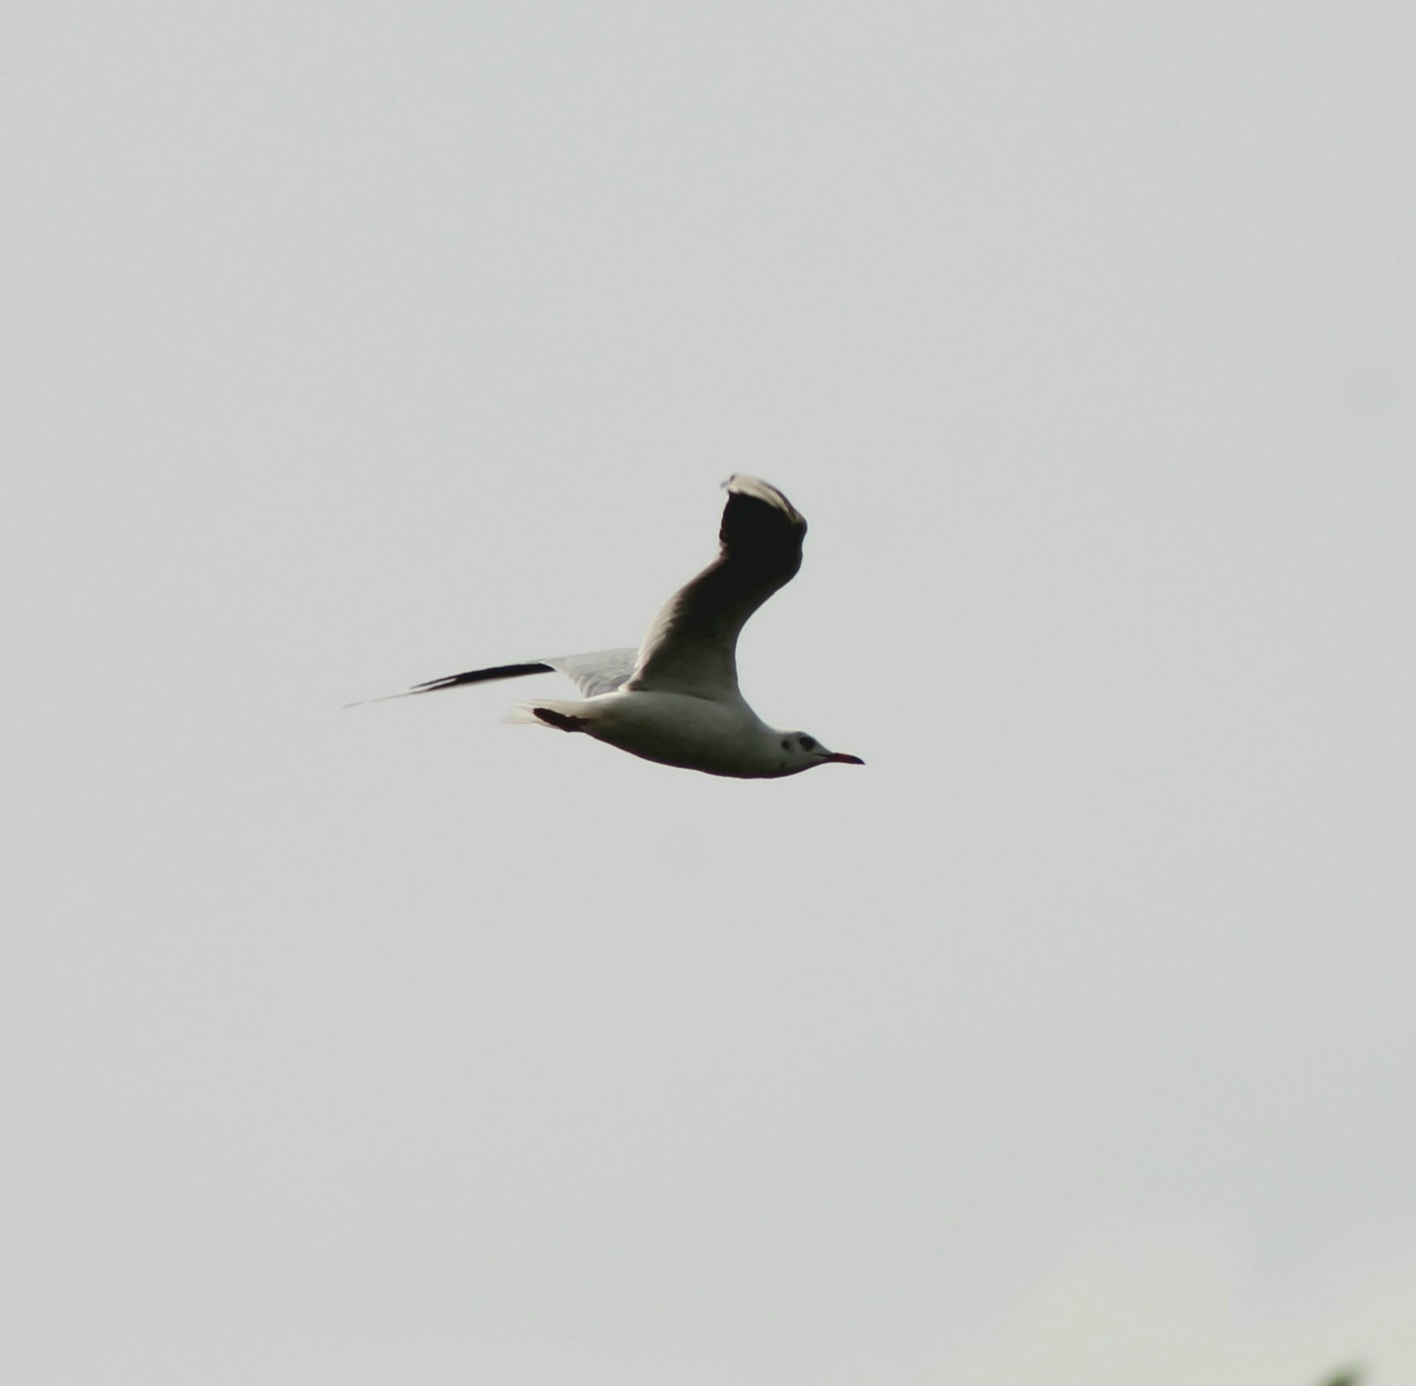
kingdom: Animalia
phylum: Chordata
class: Aves
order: Charadriiformes
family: Laridae
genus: Chroicocephalus
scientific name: Chroicocephalus ridibundus
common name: Black-headed gull
